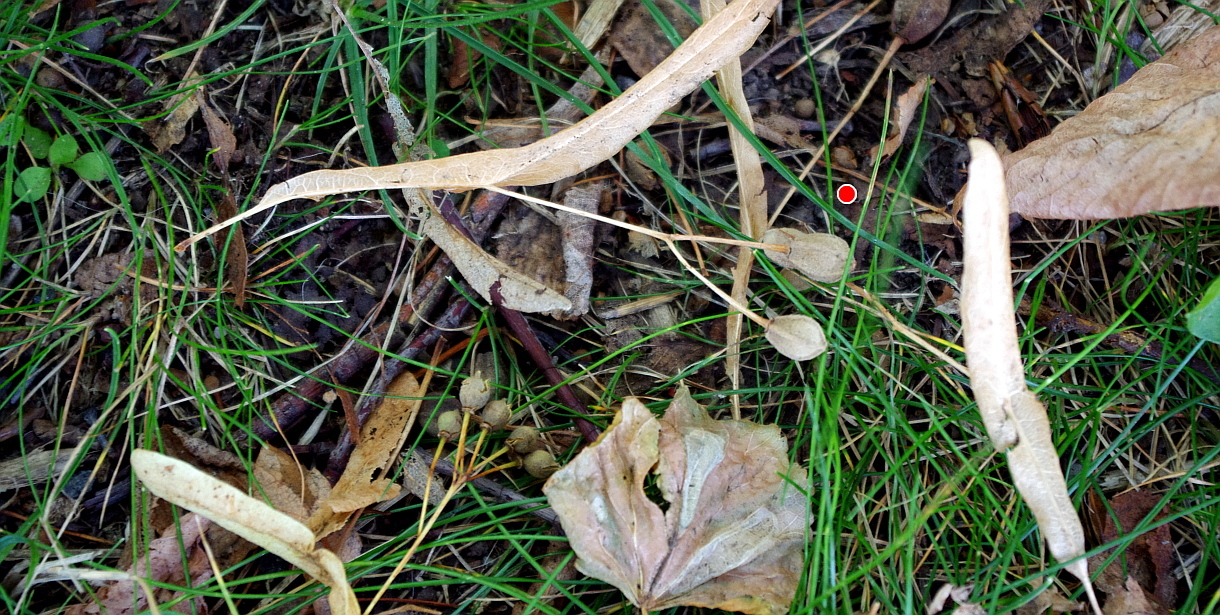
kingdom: Plantae
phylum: Tracheophyta
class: Magnoliopsida
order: Malvales
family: Malvaceae
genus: Tilia
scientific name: Tilia platyphyllos
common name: Large-leaved lime
